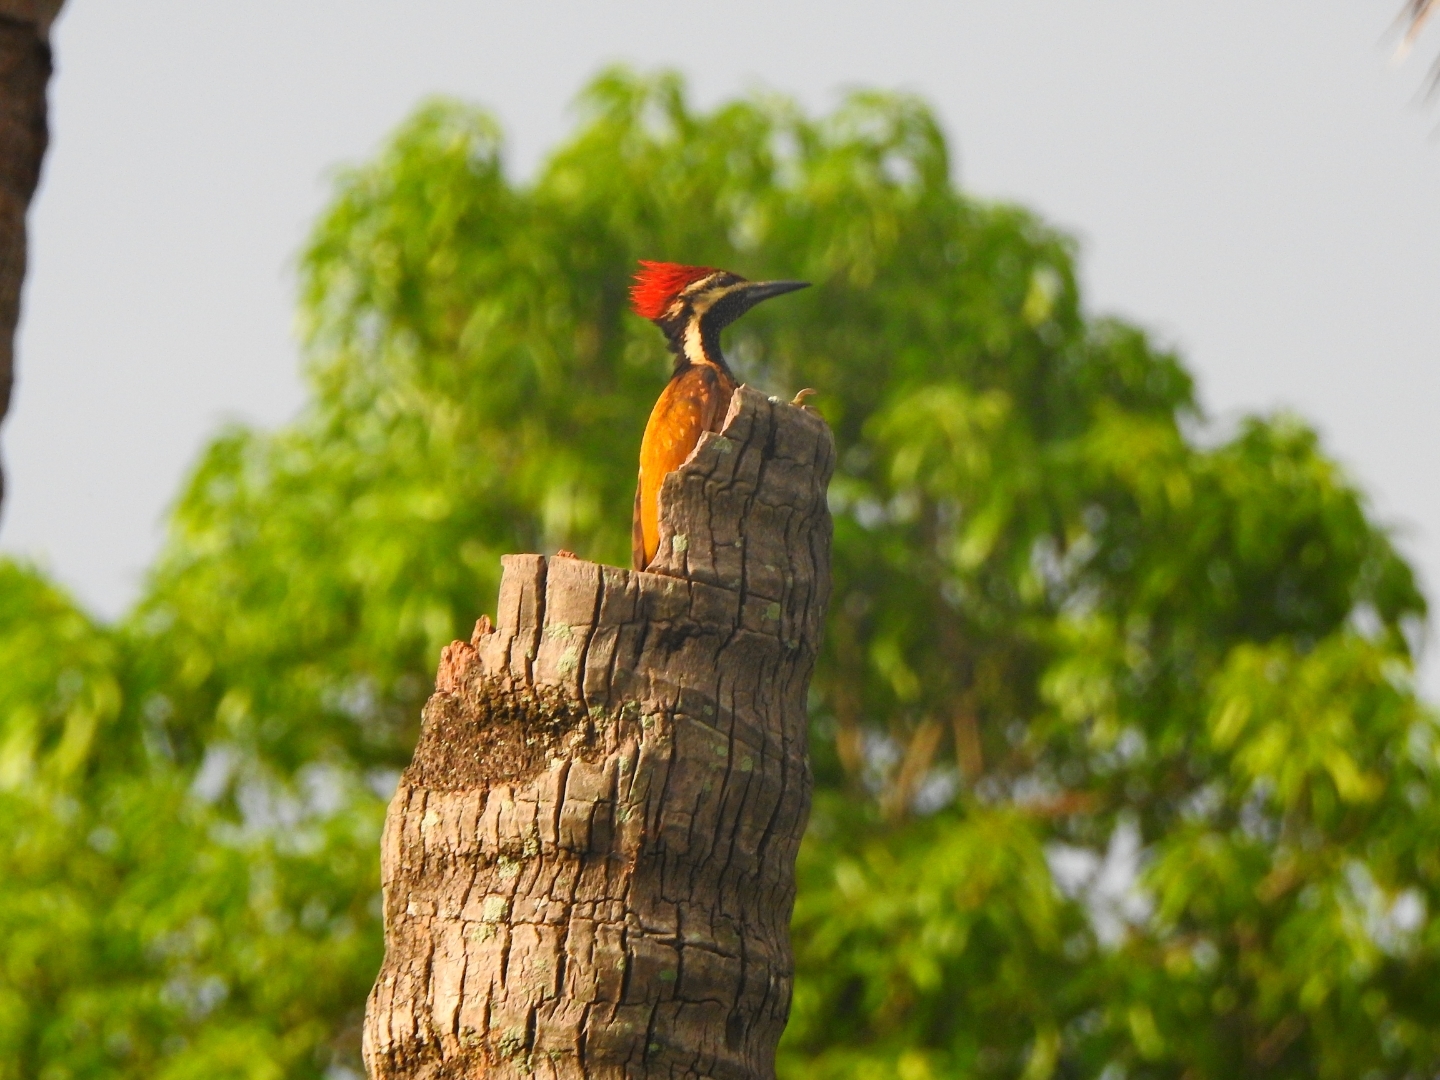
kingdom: Animalia
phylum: Chordata
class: Aves
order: Piciformes
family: Picidae
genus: Dinopium
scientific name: Dinopium benghalense
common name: Black-rumped flameback
